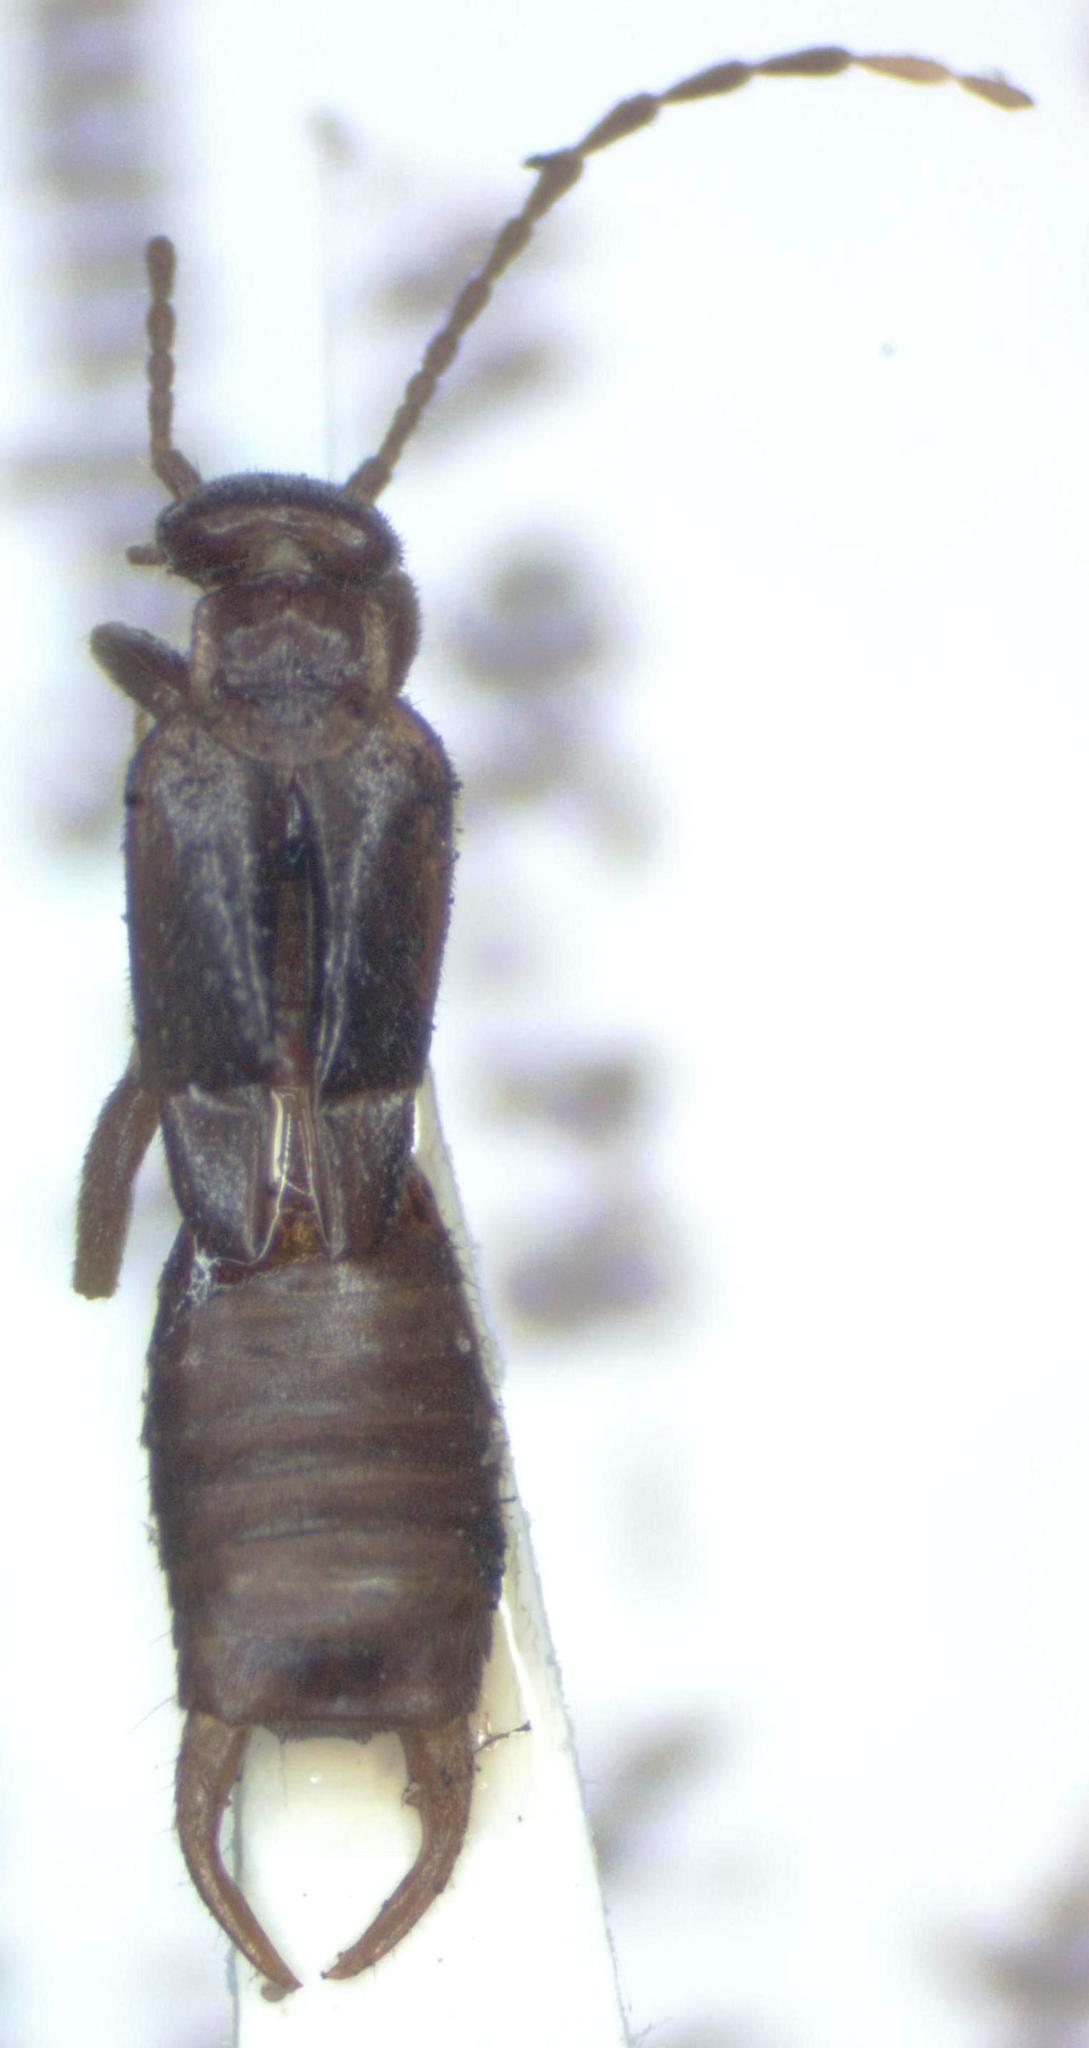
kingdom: Animalia
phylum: Arthropoda
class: Insecta
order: Dermaptera
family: Spongiphoridae
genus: Circolabia
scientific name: Circolabia arcuata
